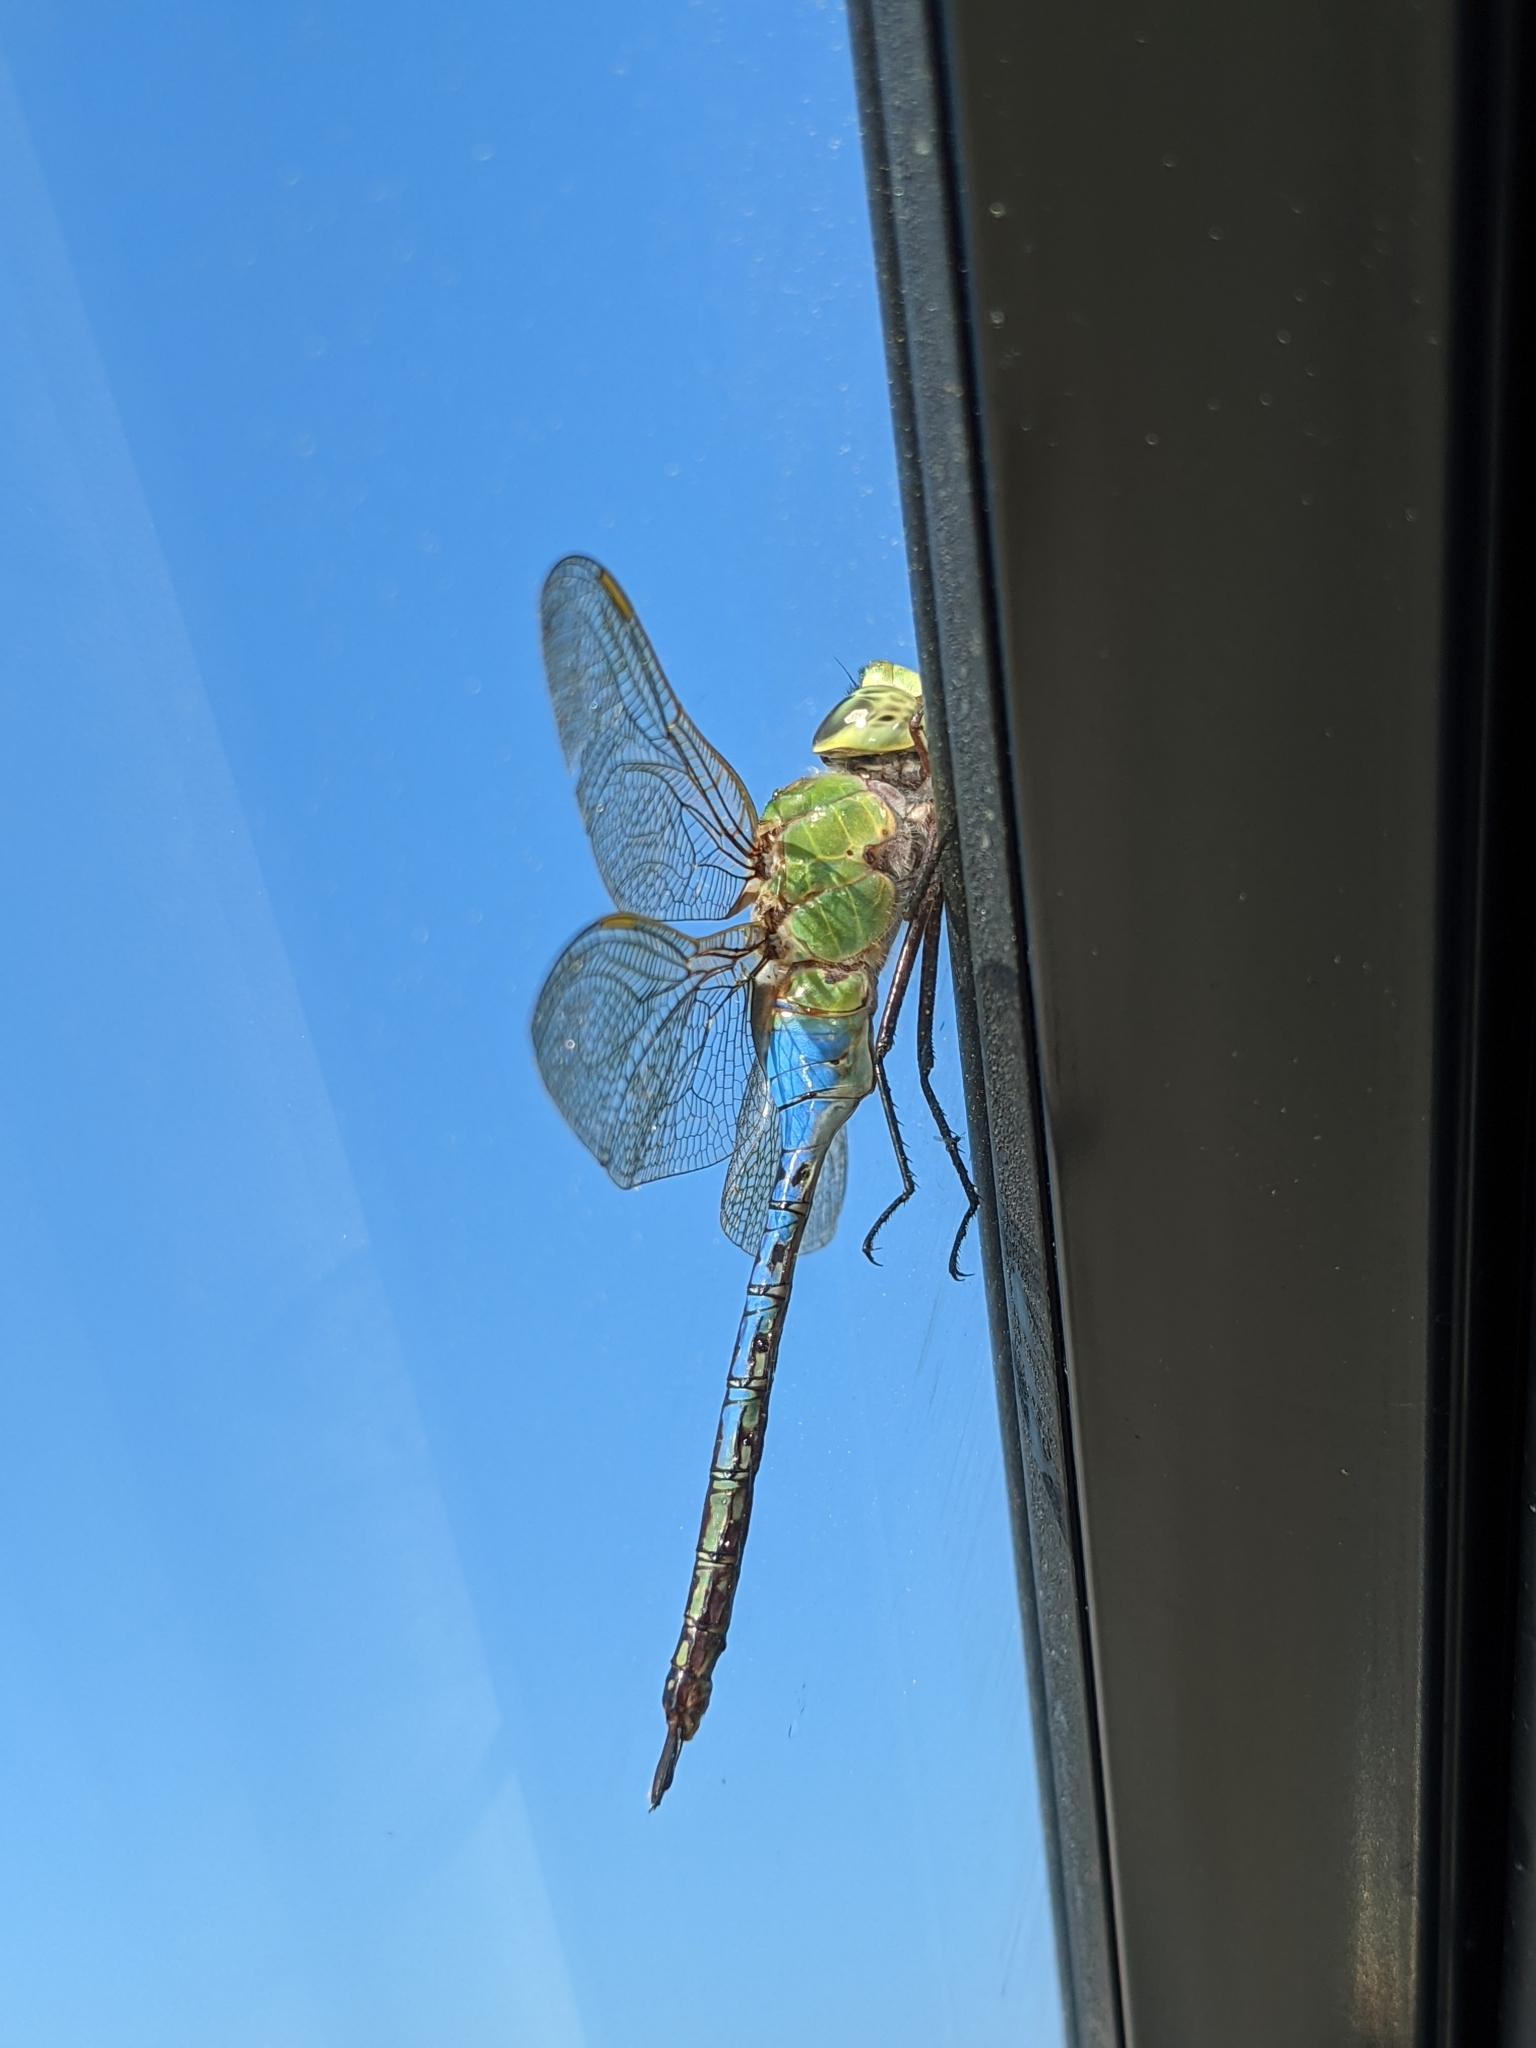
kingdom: Animalia
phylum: Arthropoda
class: Insecta
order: Odonata
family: Aeshnidae
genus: Anax
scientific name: Anax junius
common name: Common green darner
